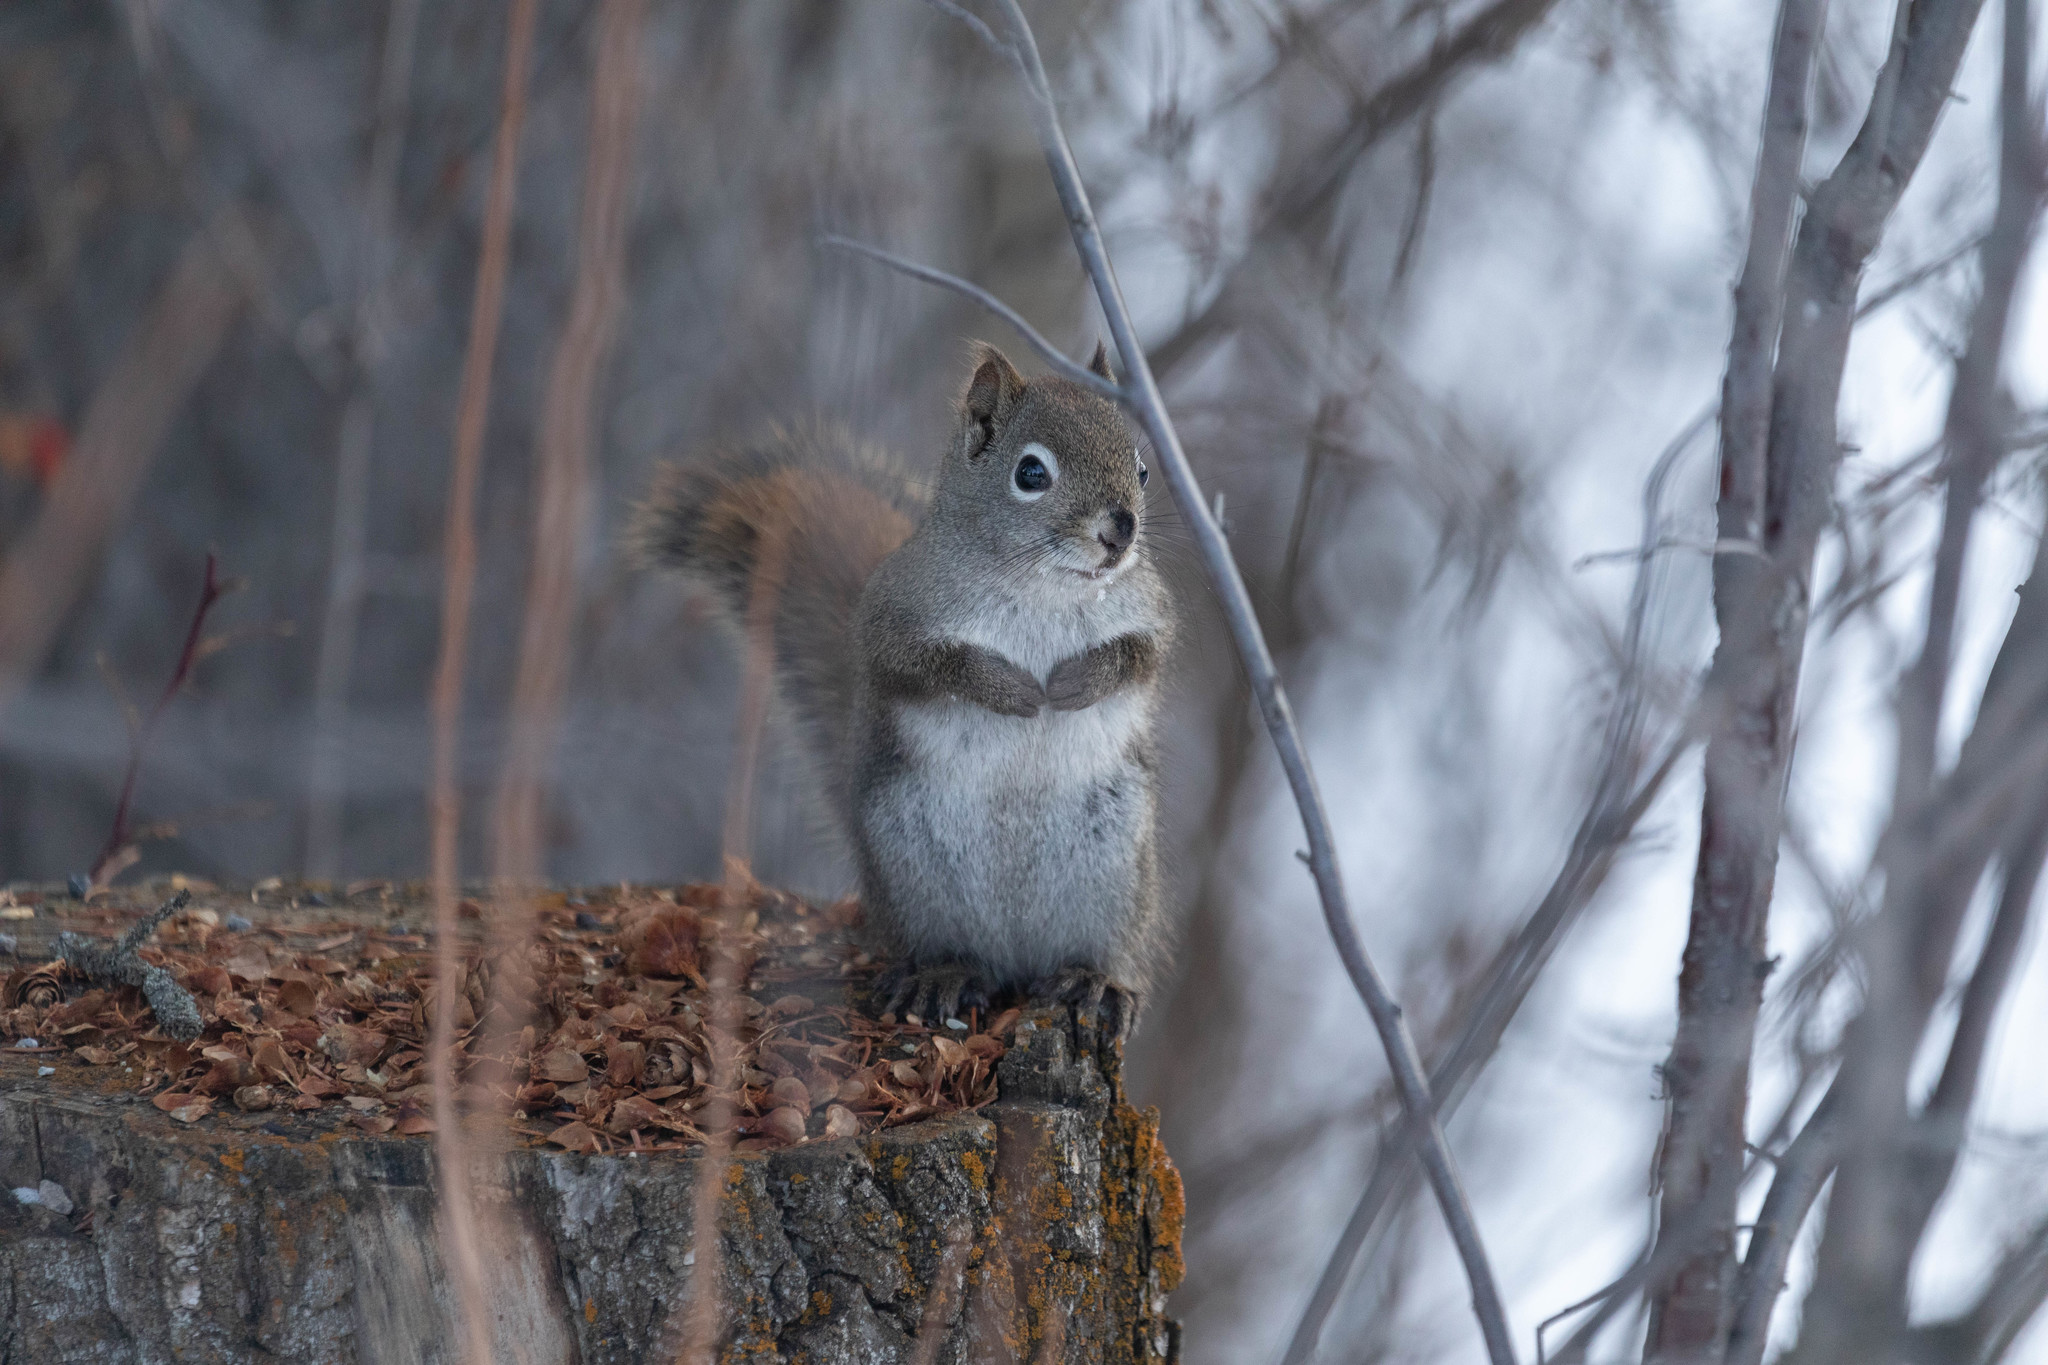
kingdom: Animalia
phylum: Chordata
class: Mammalia
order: Rodentia
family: Sciuridae
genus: Tamiasciurus
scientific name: Tamiasciurus hudsonicus
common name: Red squirrel
